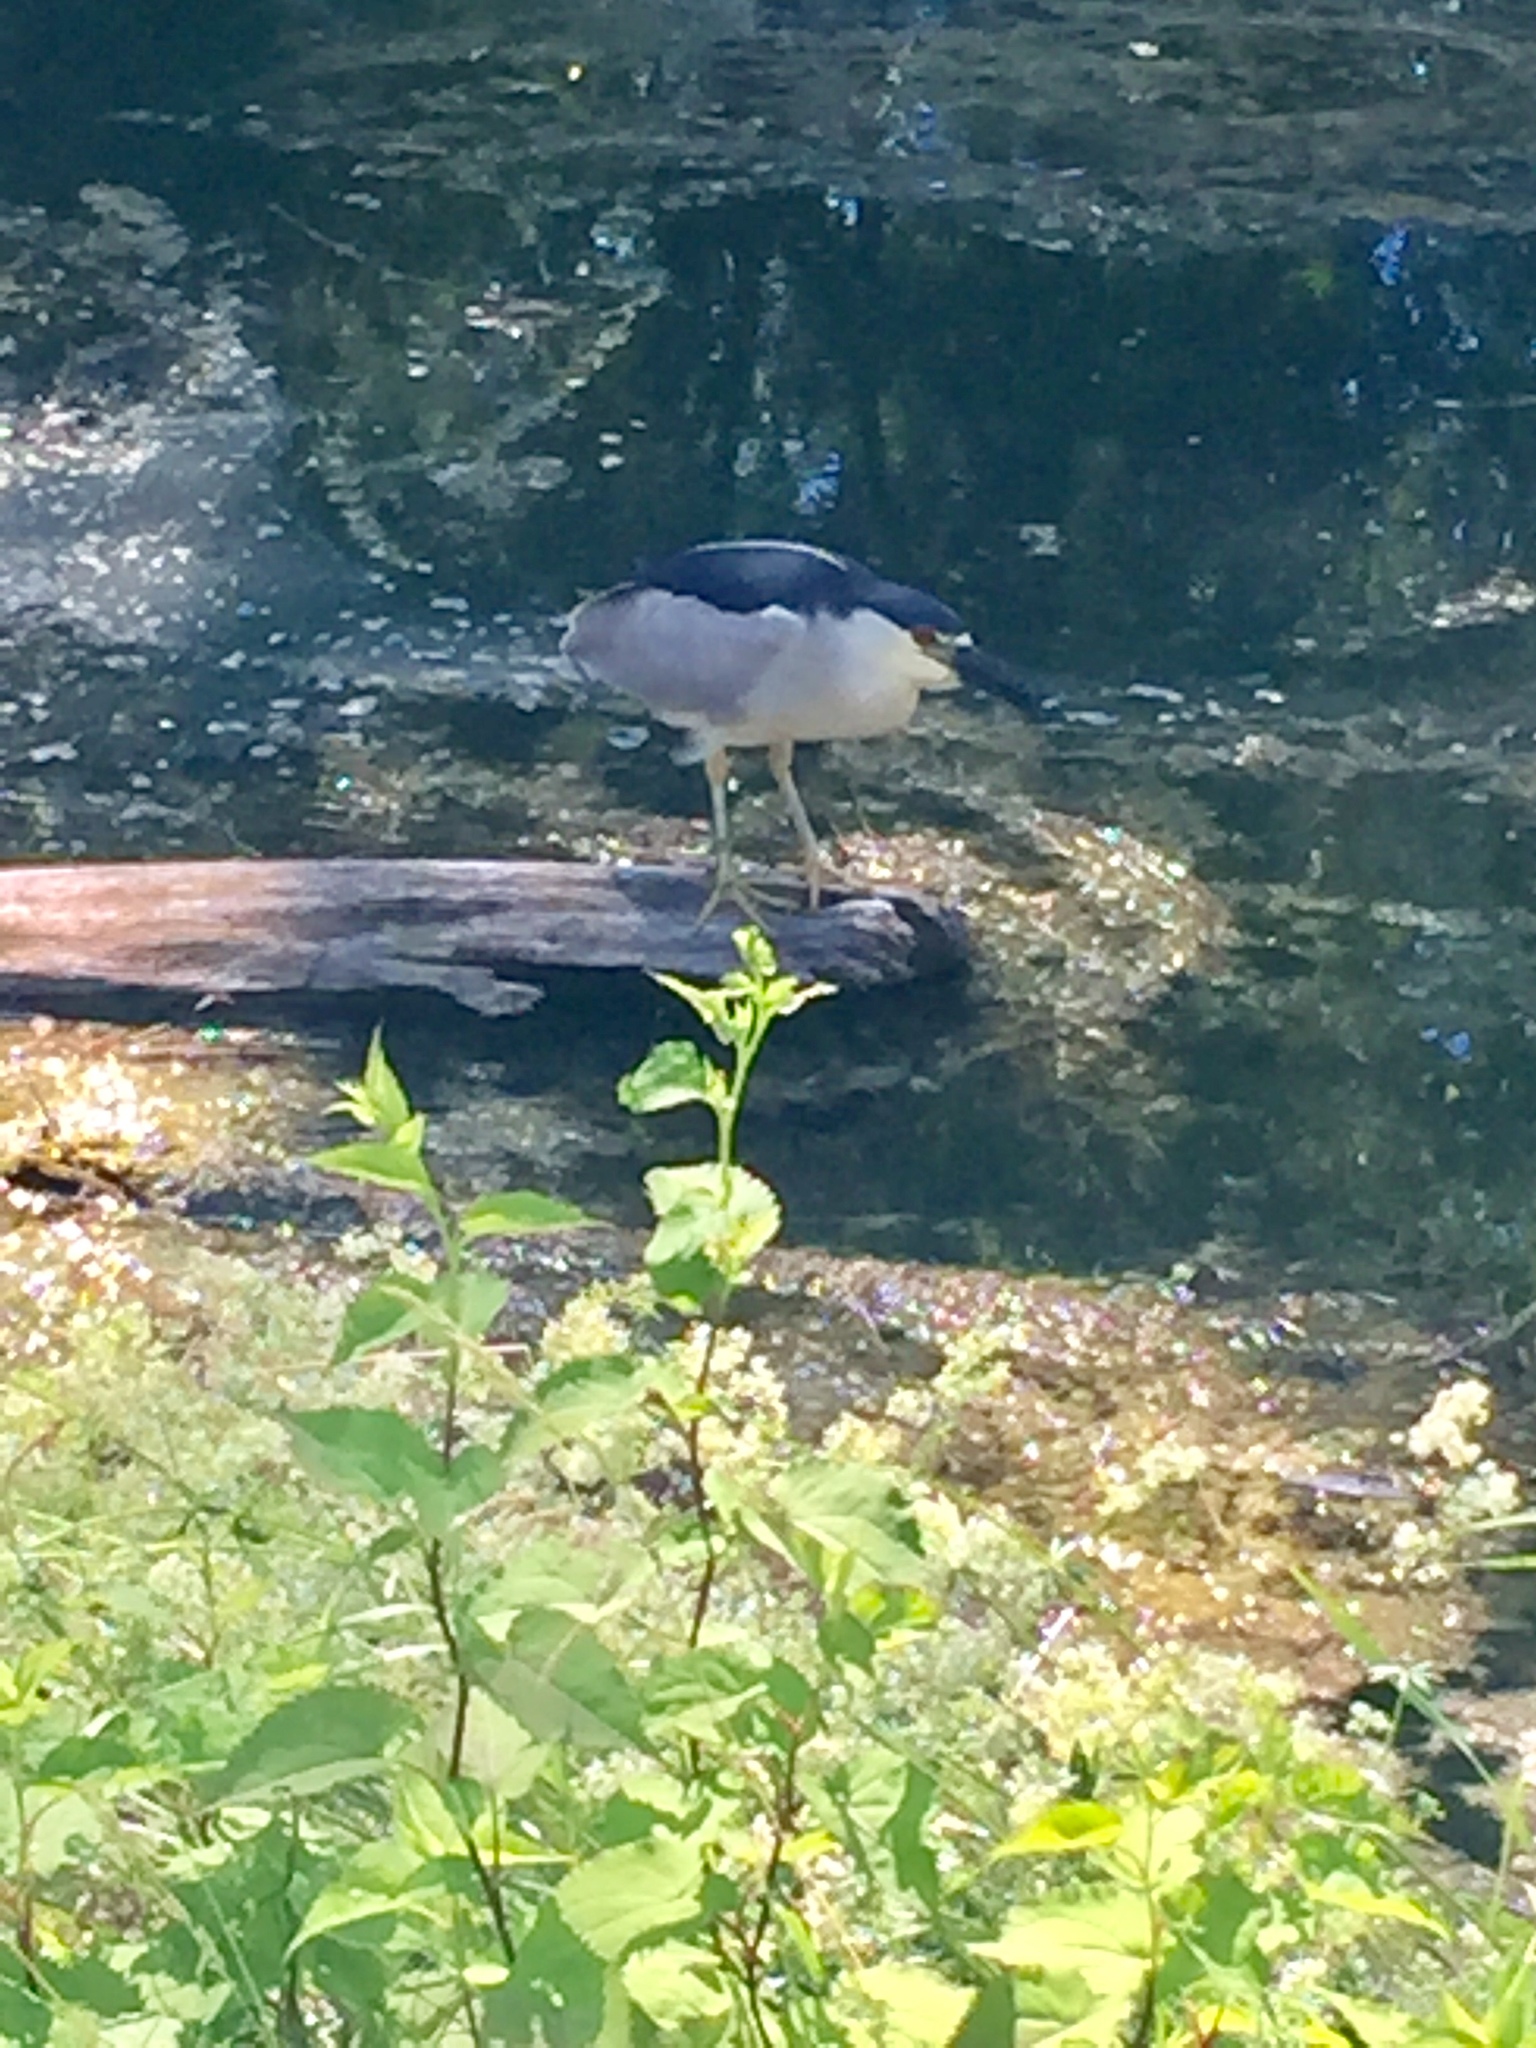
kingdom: Animalia
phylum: Chordata
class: Aves
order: Pelecaniformes
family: Ardeidae
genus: Nycticorax
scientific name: Nycticorax nycticorax
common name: Black-crowned night heron
